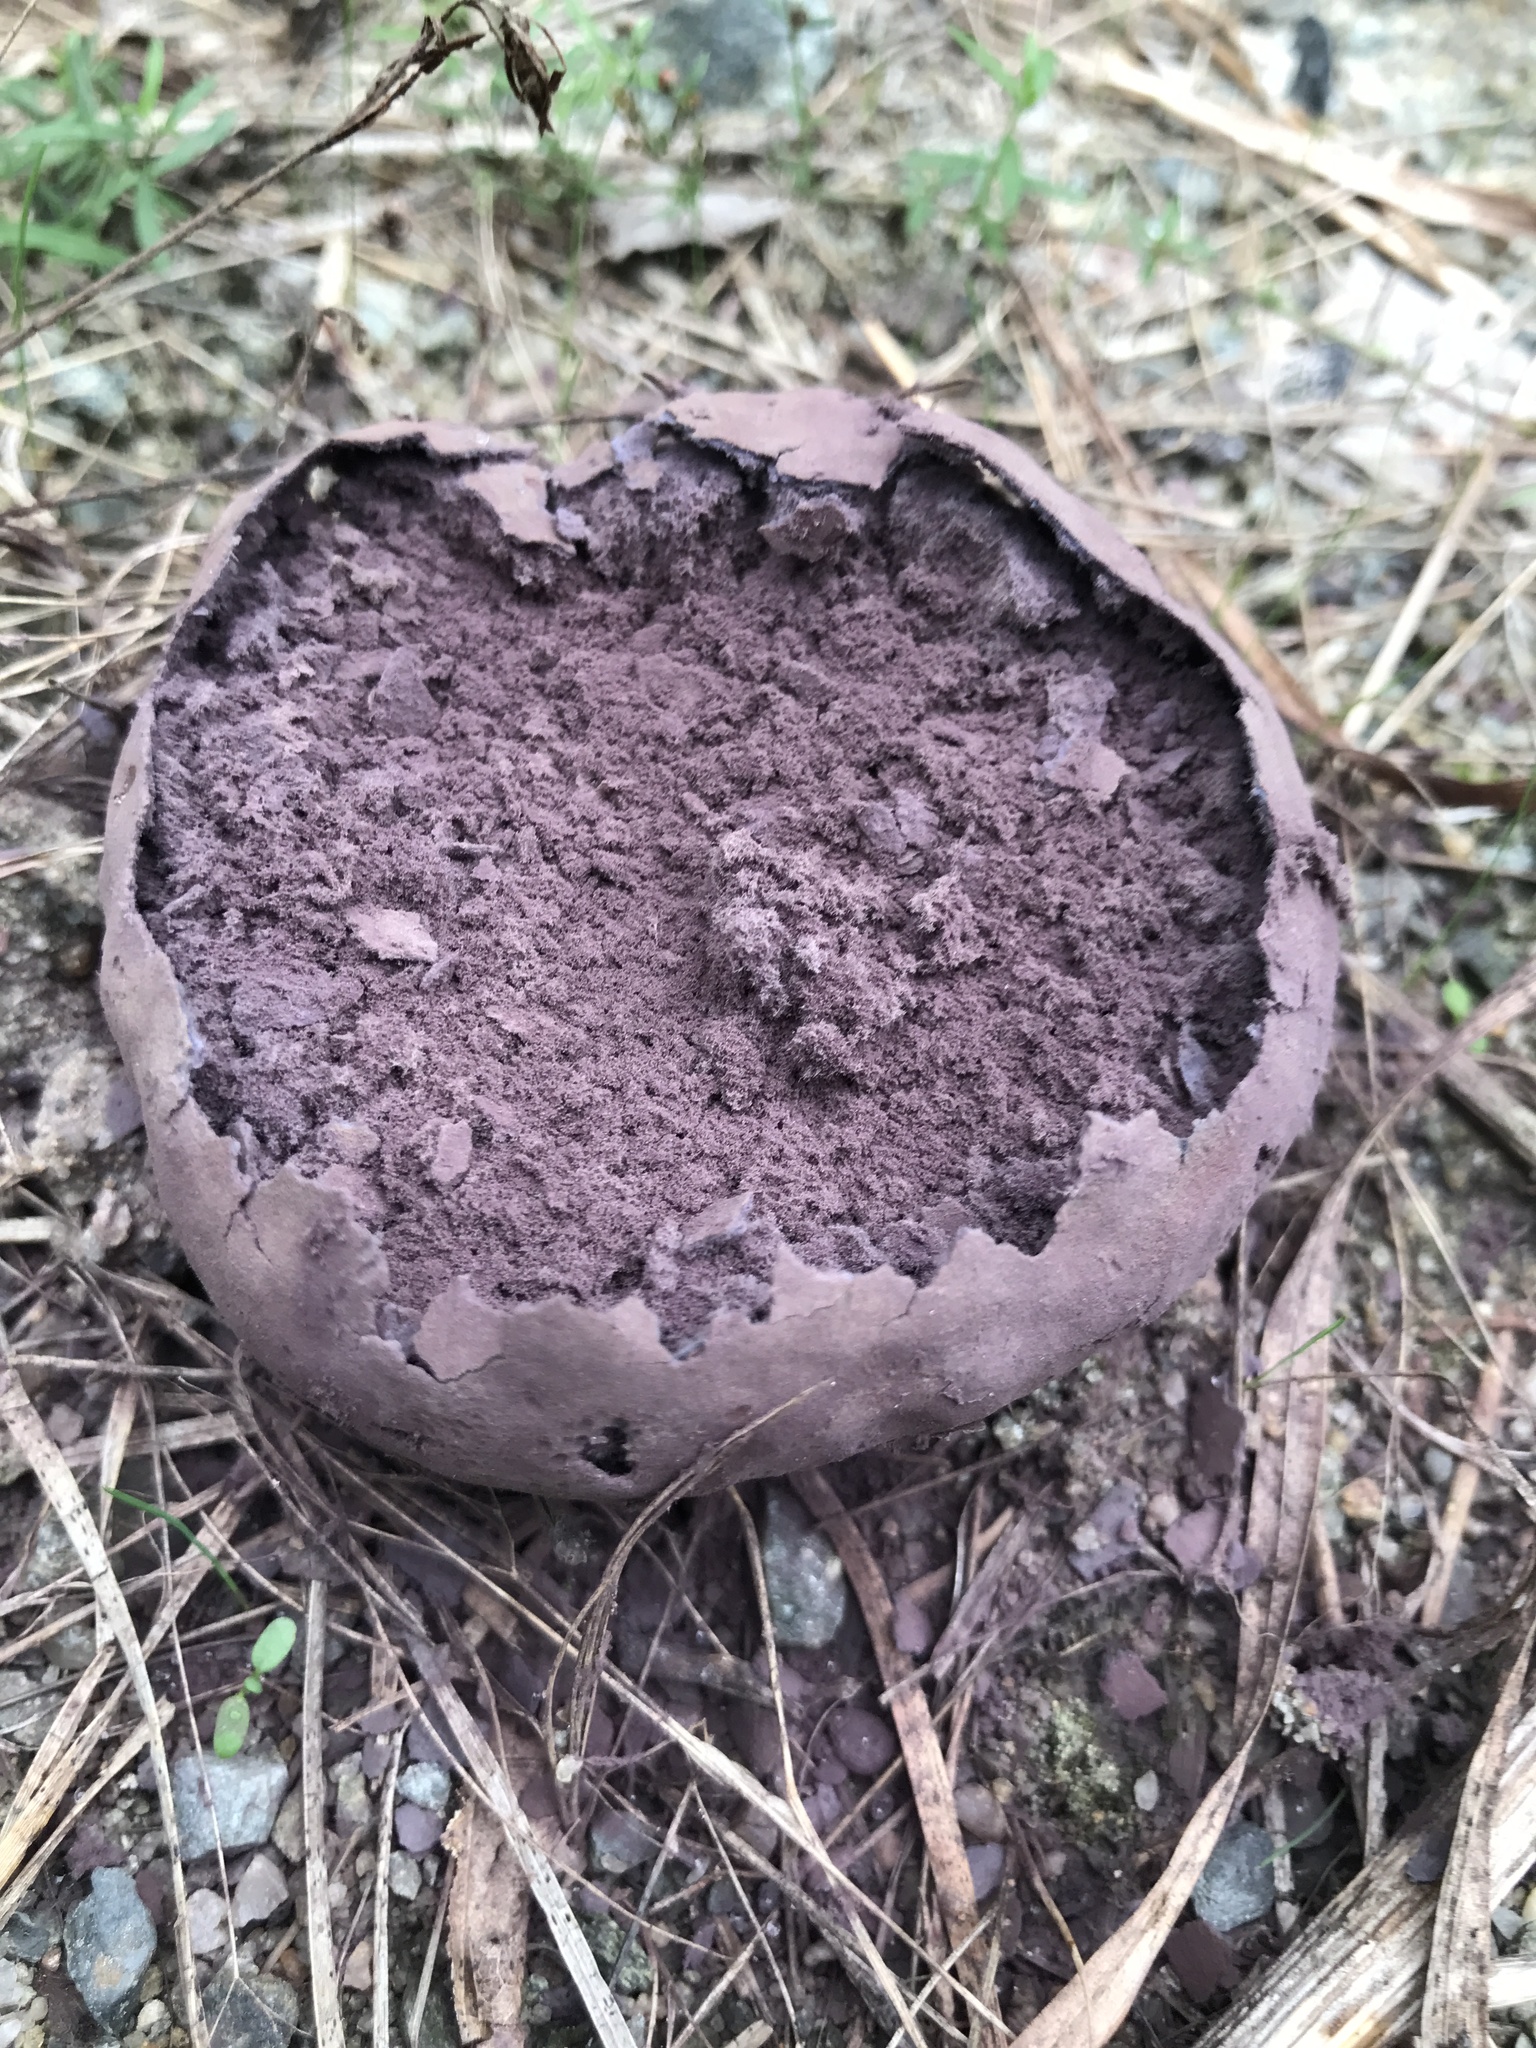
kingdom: Fungi
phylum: Basidiomycota
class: Agaricomycetes
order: Agaricales
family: Lycoperdaceae
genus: Calvatia
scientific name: Calvatia cyathiformis
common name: Purple-spored puffball
